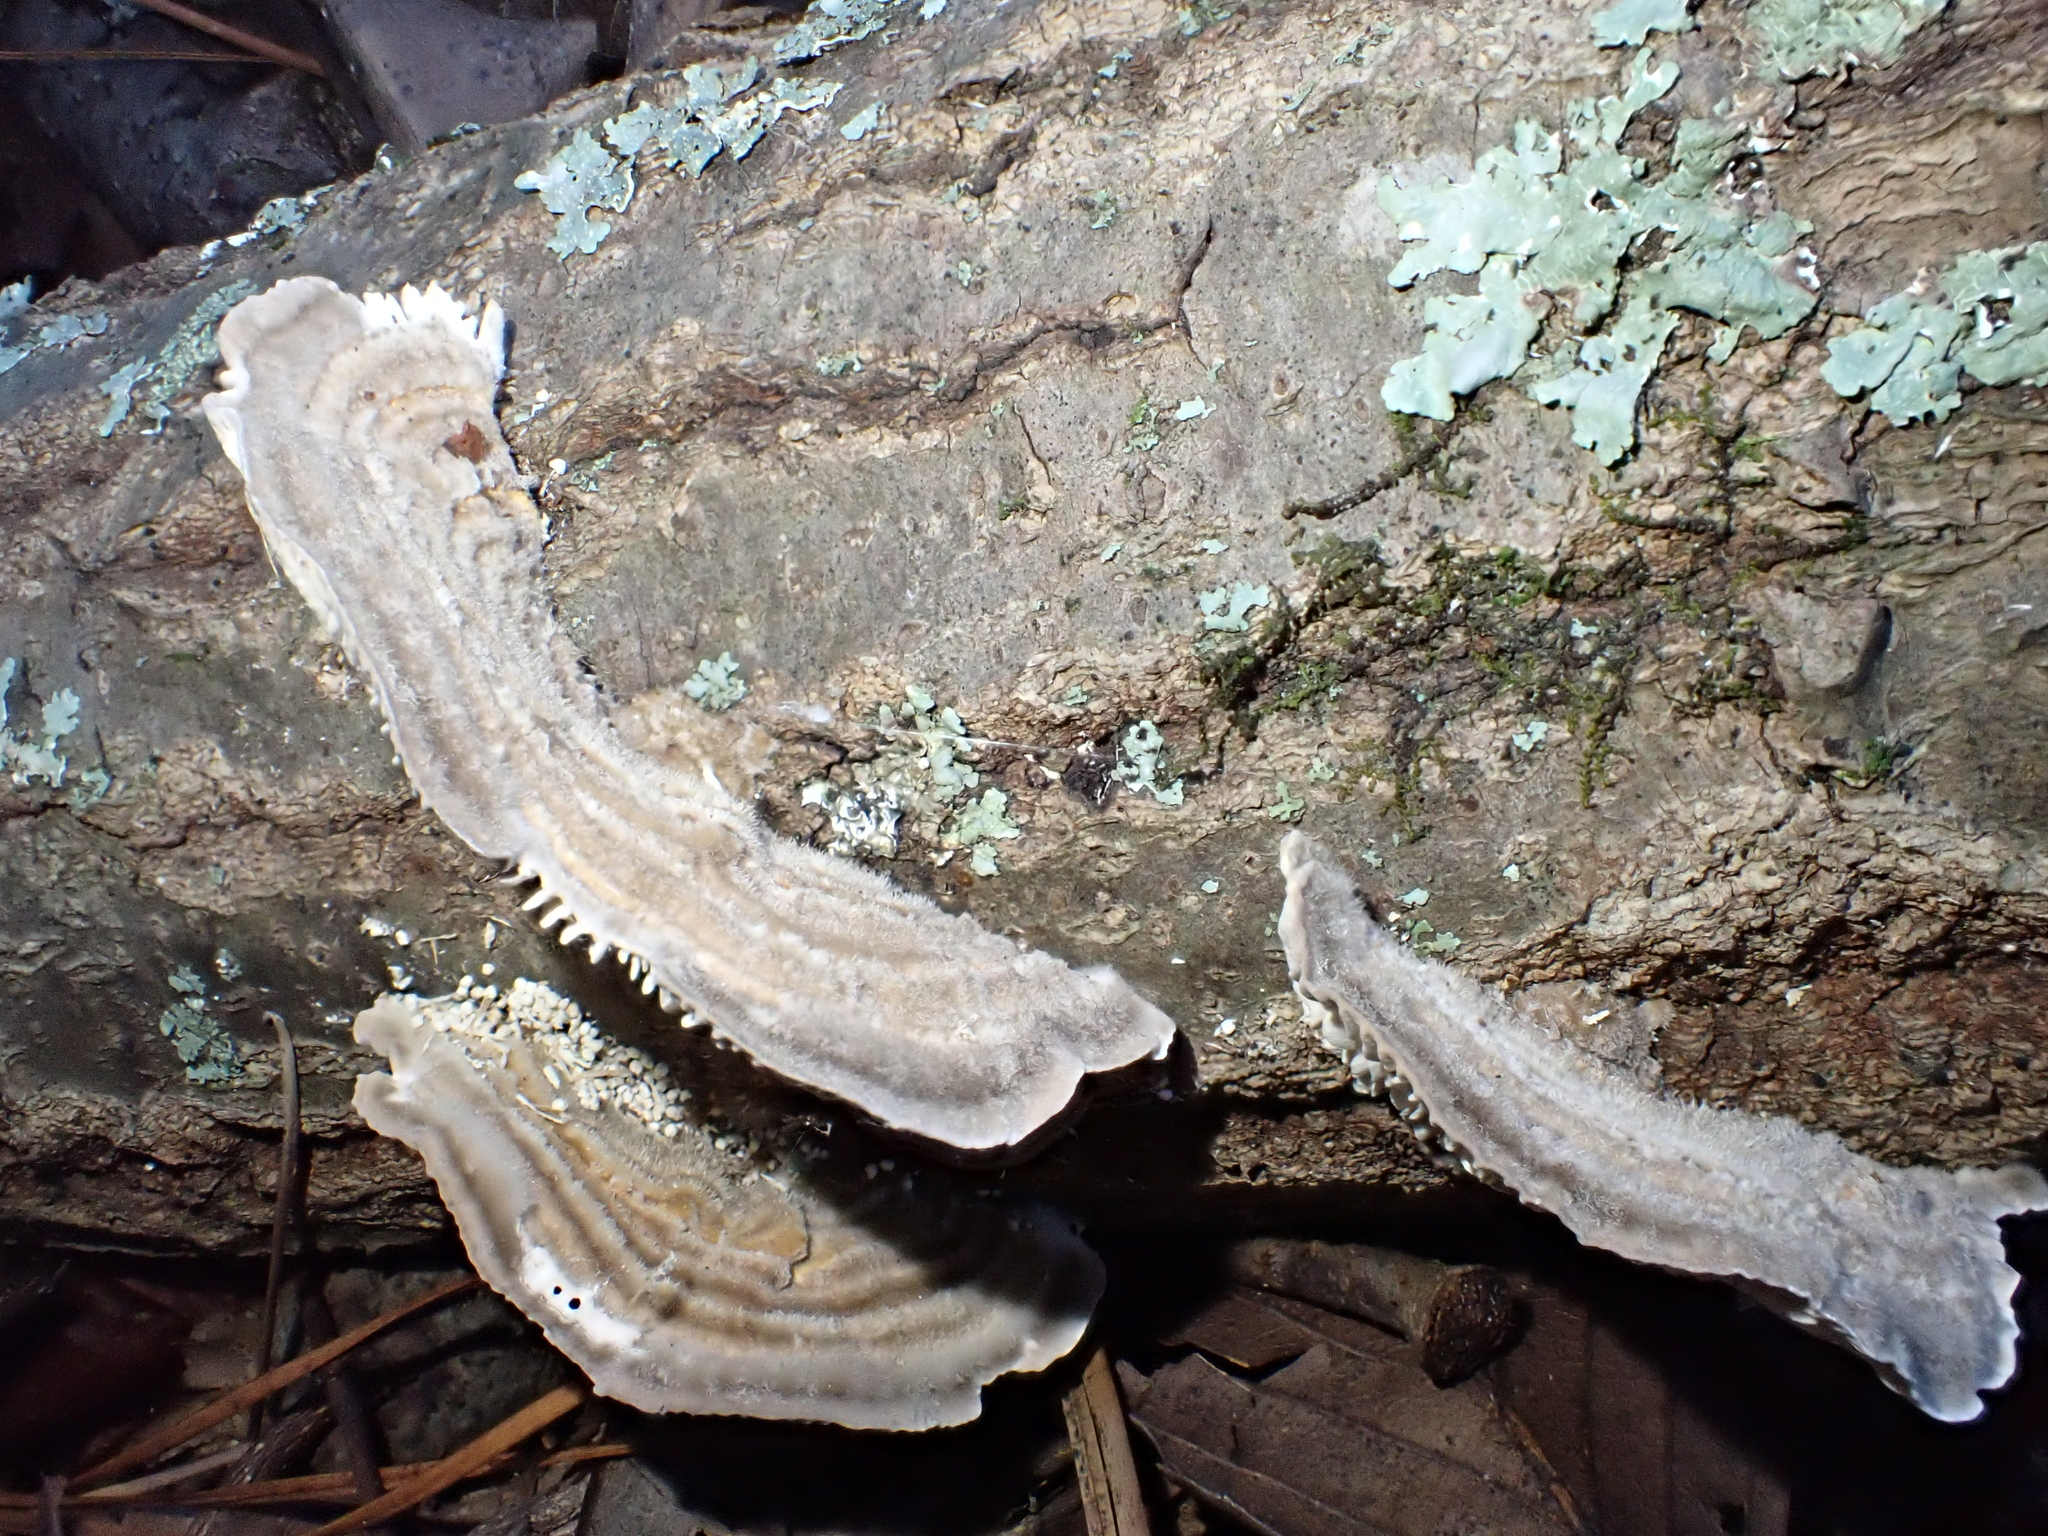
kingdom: Fungi
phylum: Basidiomycota
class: Agaricomycetes
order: Polyporales
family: Polyporaceae
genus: Lenzites
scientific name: Lenzites betulinus
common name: Birch mazegill
